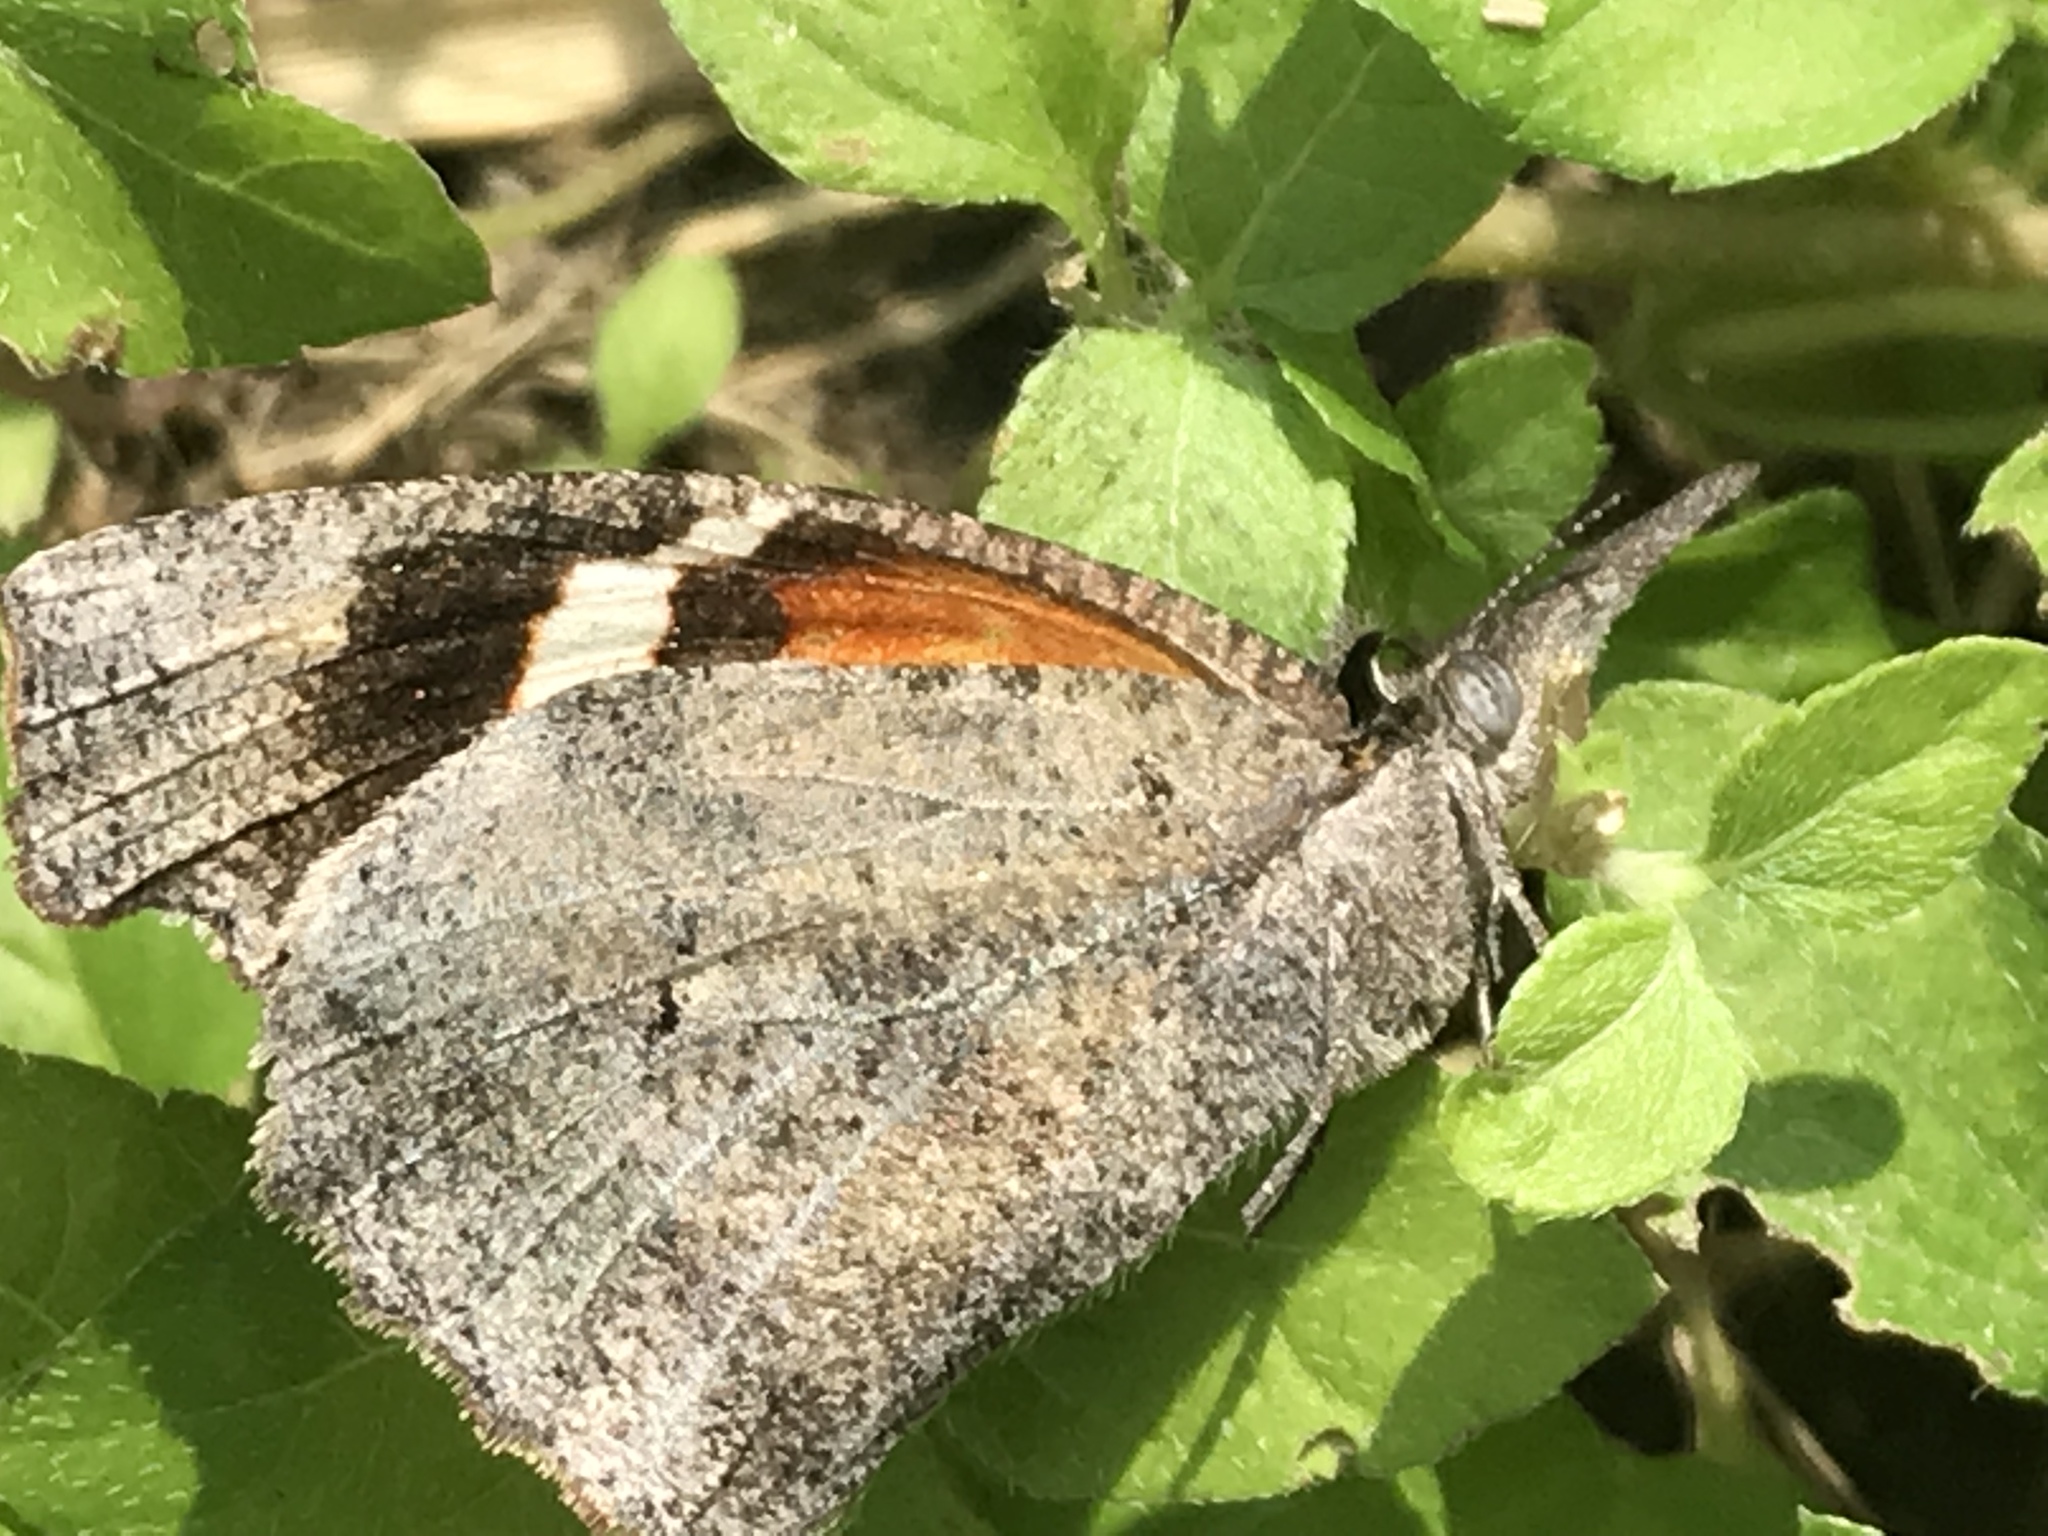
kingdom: Animalia
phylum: Arthropoda
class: Insecta
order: Lepidoptera
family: Nymphalidae
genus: Libytheana
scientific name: Libytheana carinenta
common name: American snout
